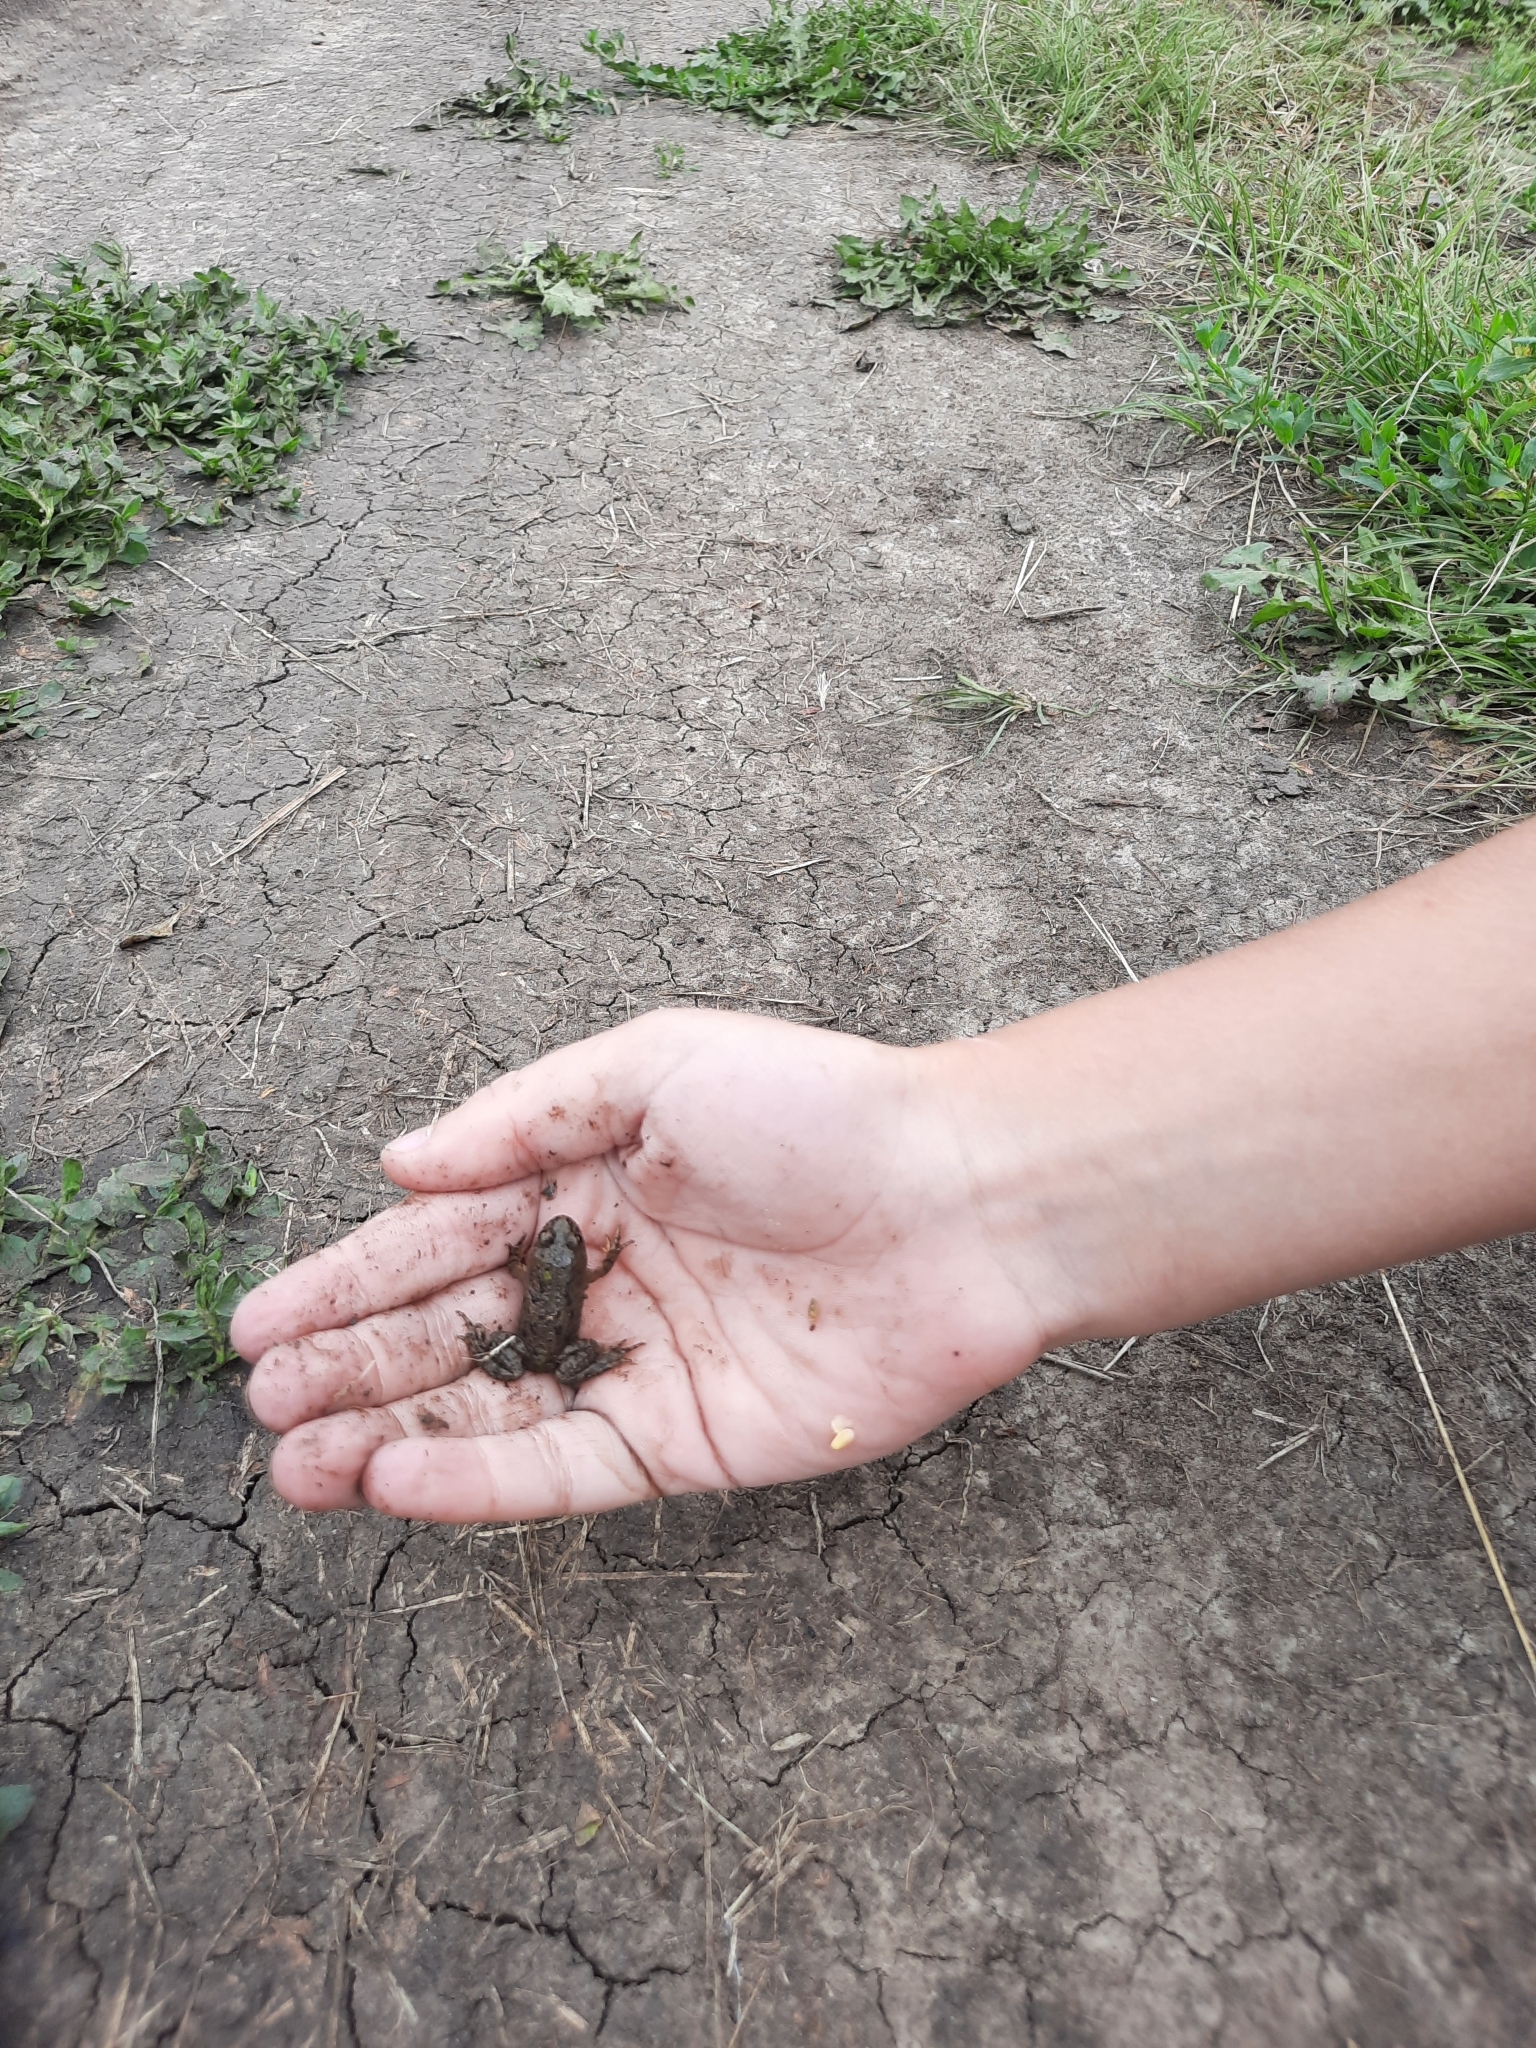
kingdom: Animalia
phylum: Chordata
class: Amphibia
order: Anura
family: Bombinatoridae
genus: Bombina
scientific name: Bombina bombina
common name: Fire-bellied toad
